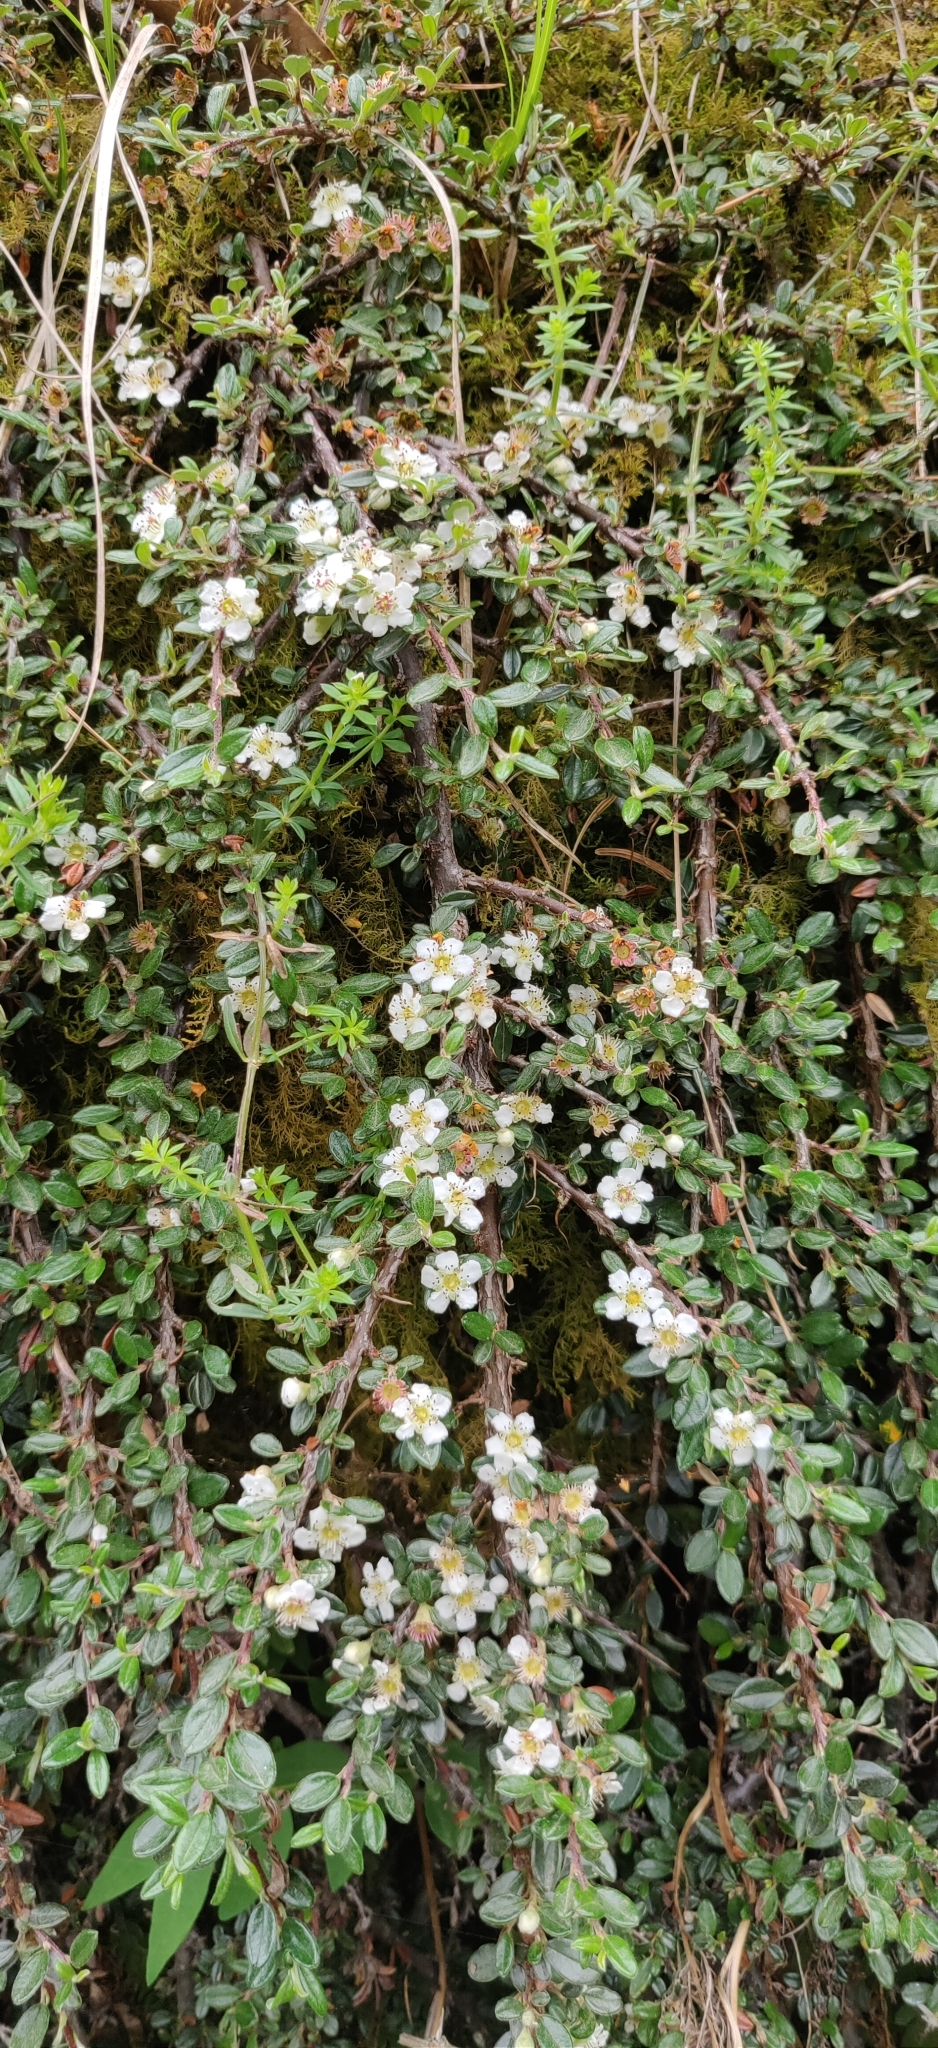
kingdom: Plantae
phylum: Tracheophyta
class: Magnoliopsida
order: Rosales
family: Rosaceae
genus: Cotoneaster
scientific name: Cotoneaster microphyllus
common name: Small-leaved cotoneaster
